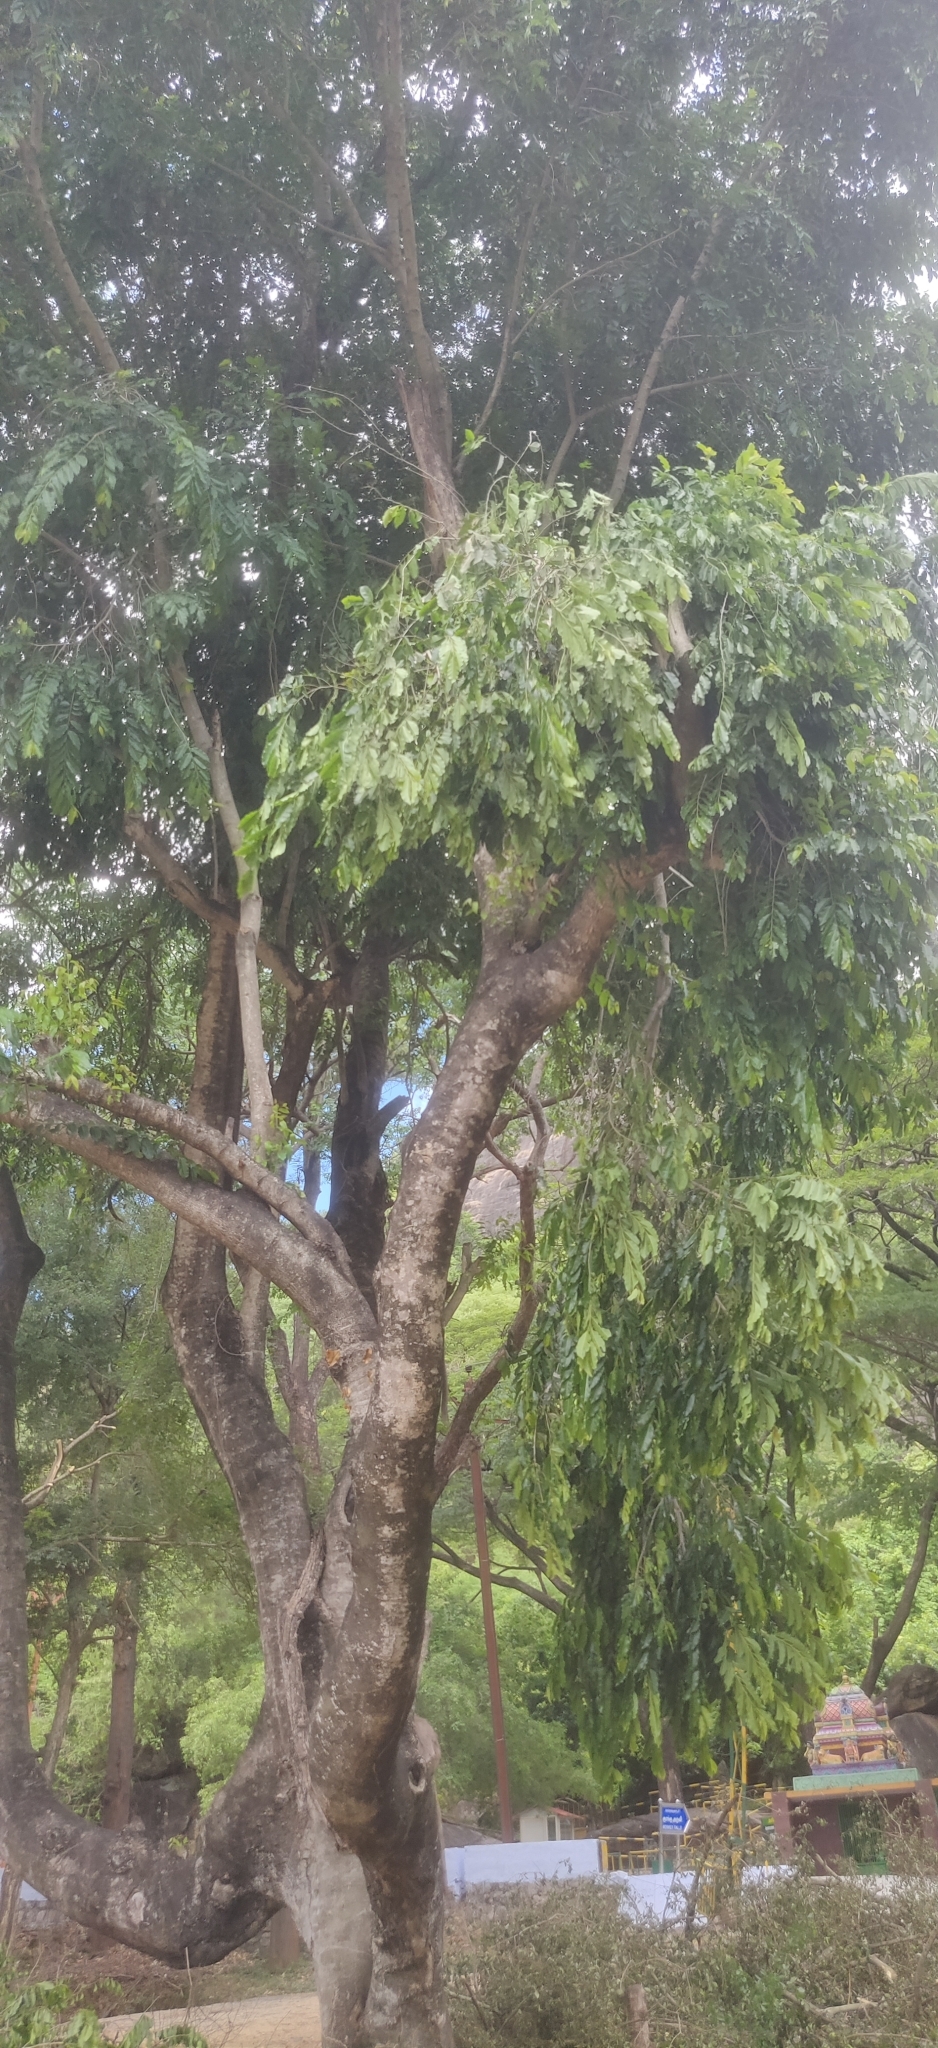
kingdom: Plantae
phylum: Tracheophyta
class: Magnoliopsida
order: Malpighiales
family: Putranjivaceae
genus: Putranjiva
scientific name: Putranjiva roxburghii
